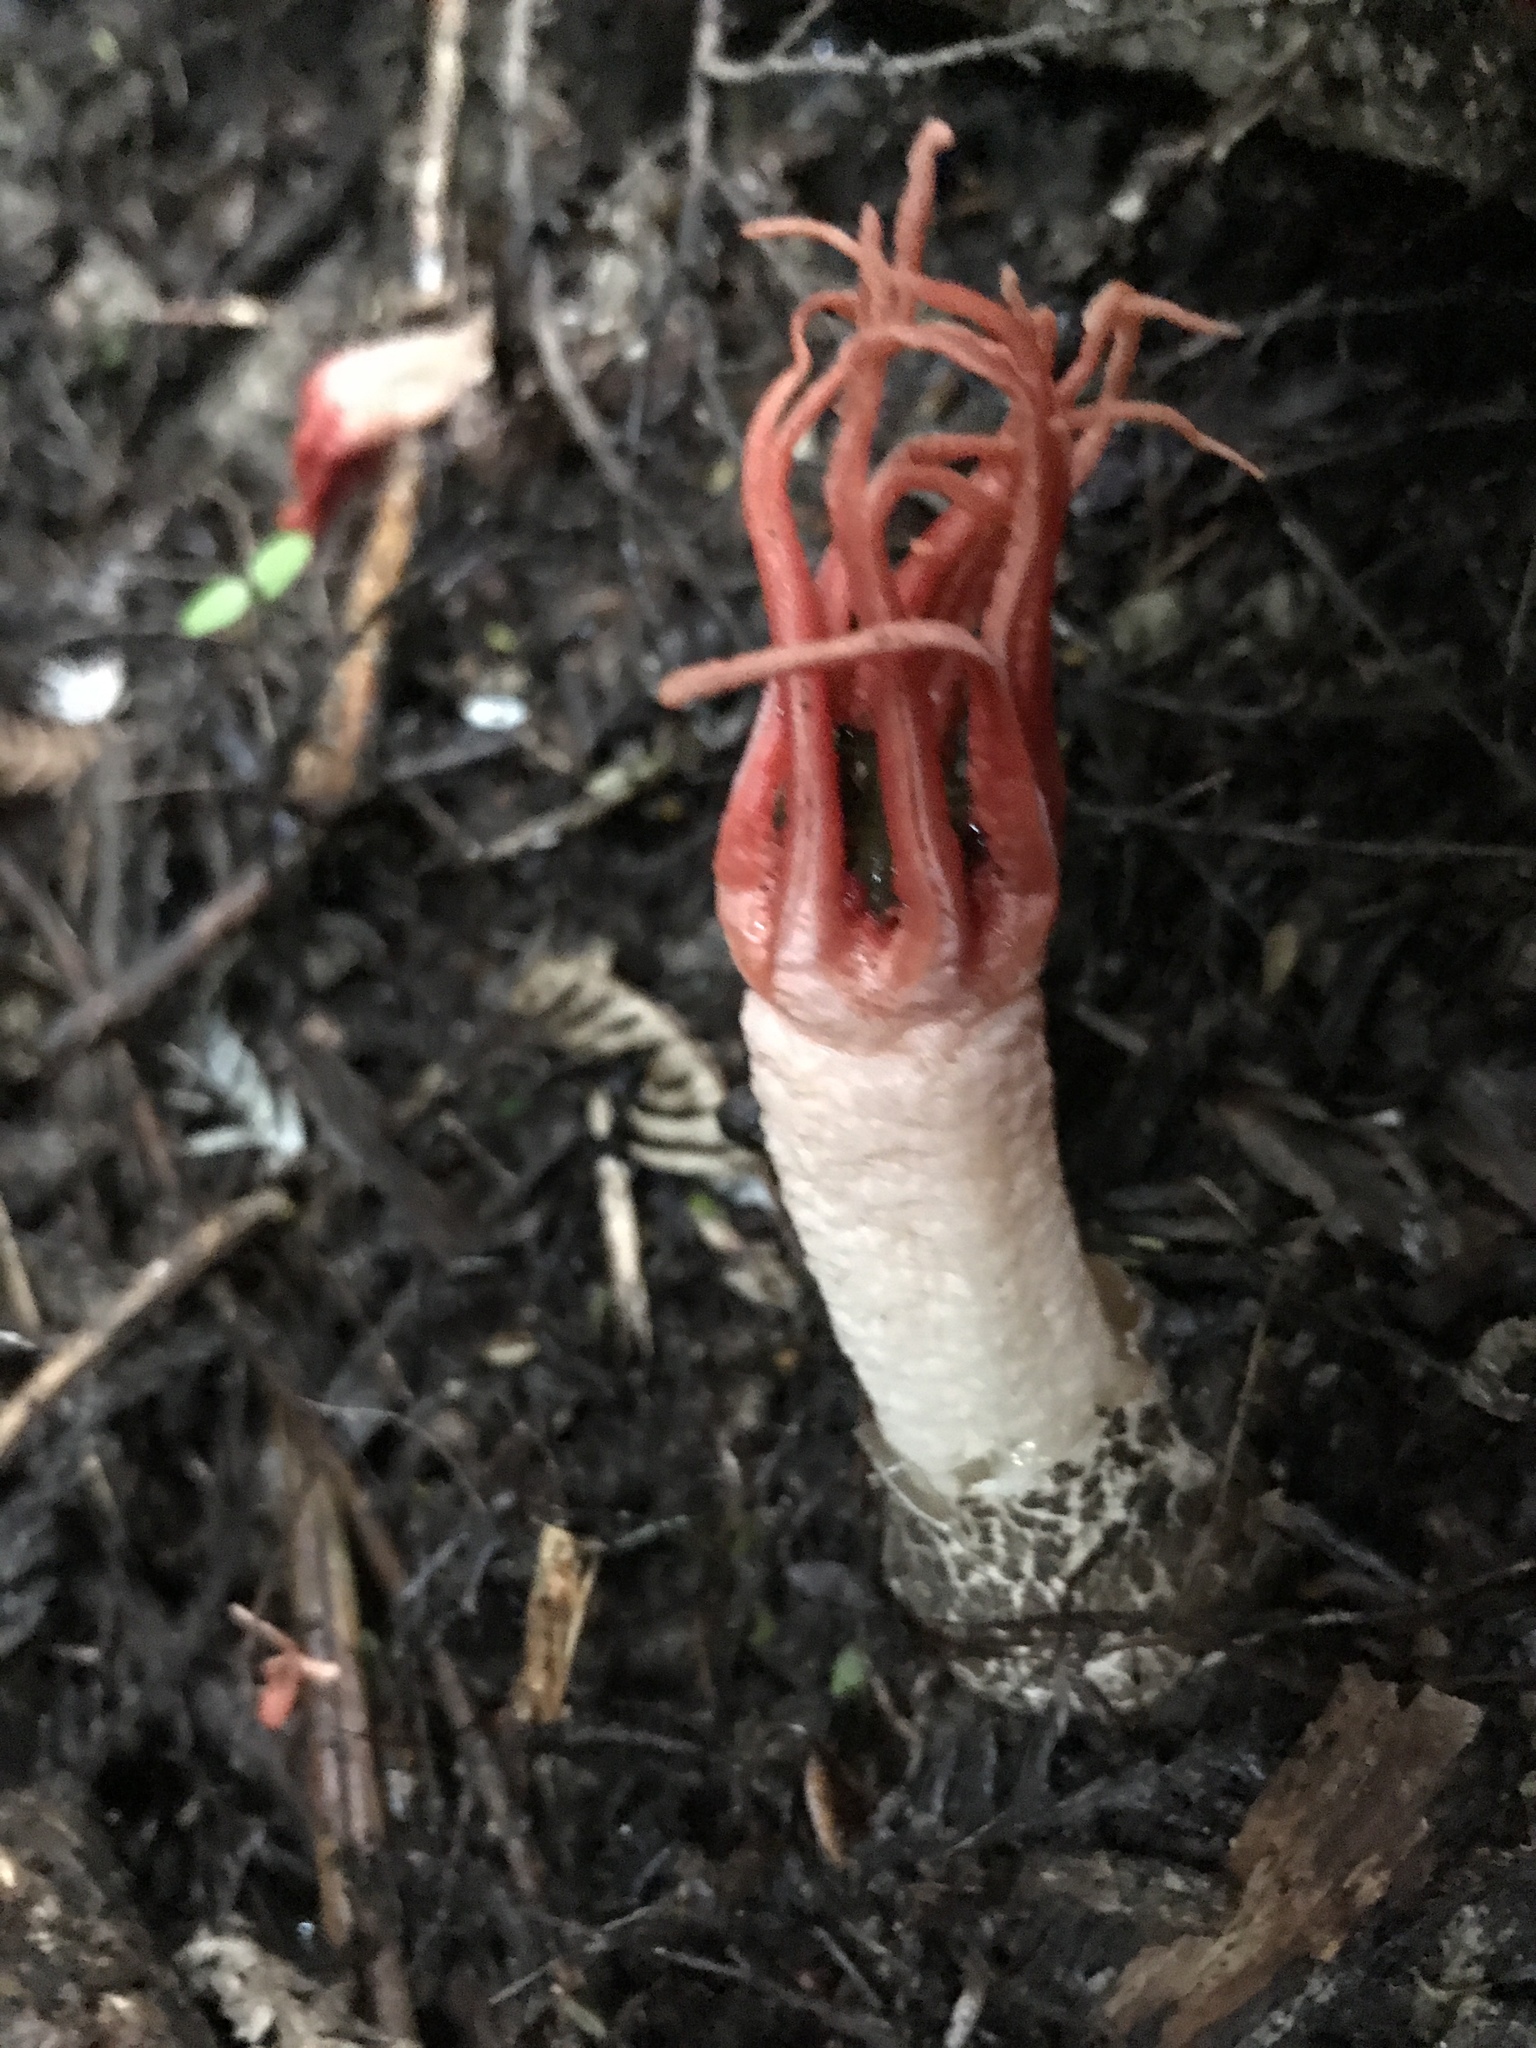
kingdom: Fungi
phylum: Basidiomycota
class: Agaricomycetes
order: Phallales
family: Phallaceae
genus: Aseroe
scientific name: Aseroe rubra
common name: Starfish fungus
